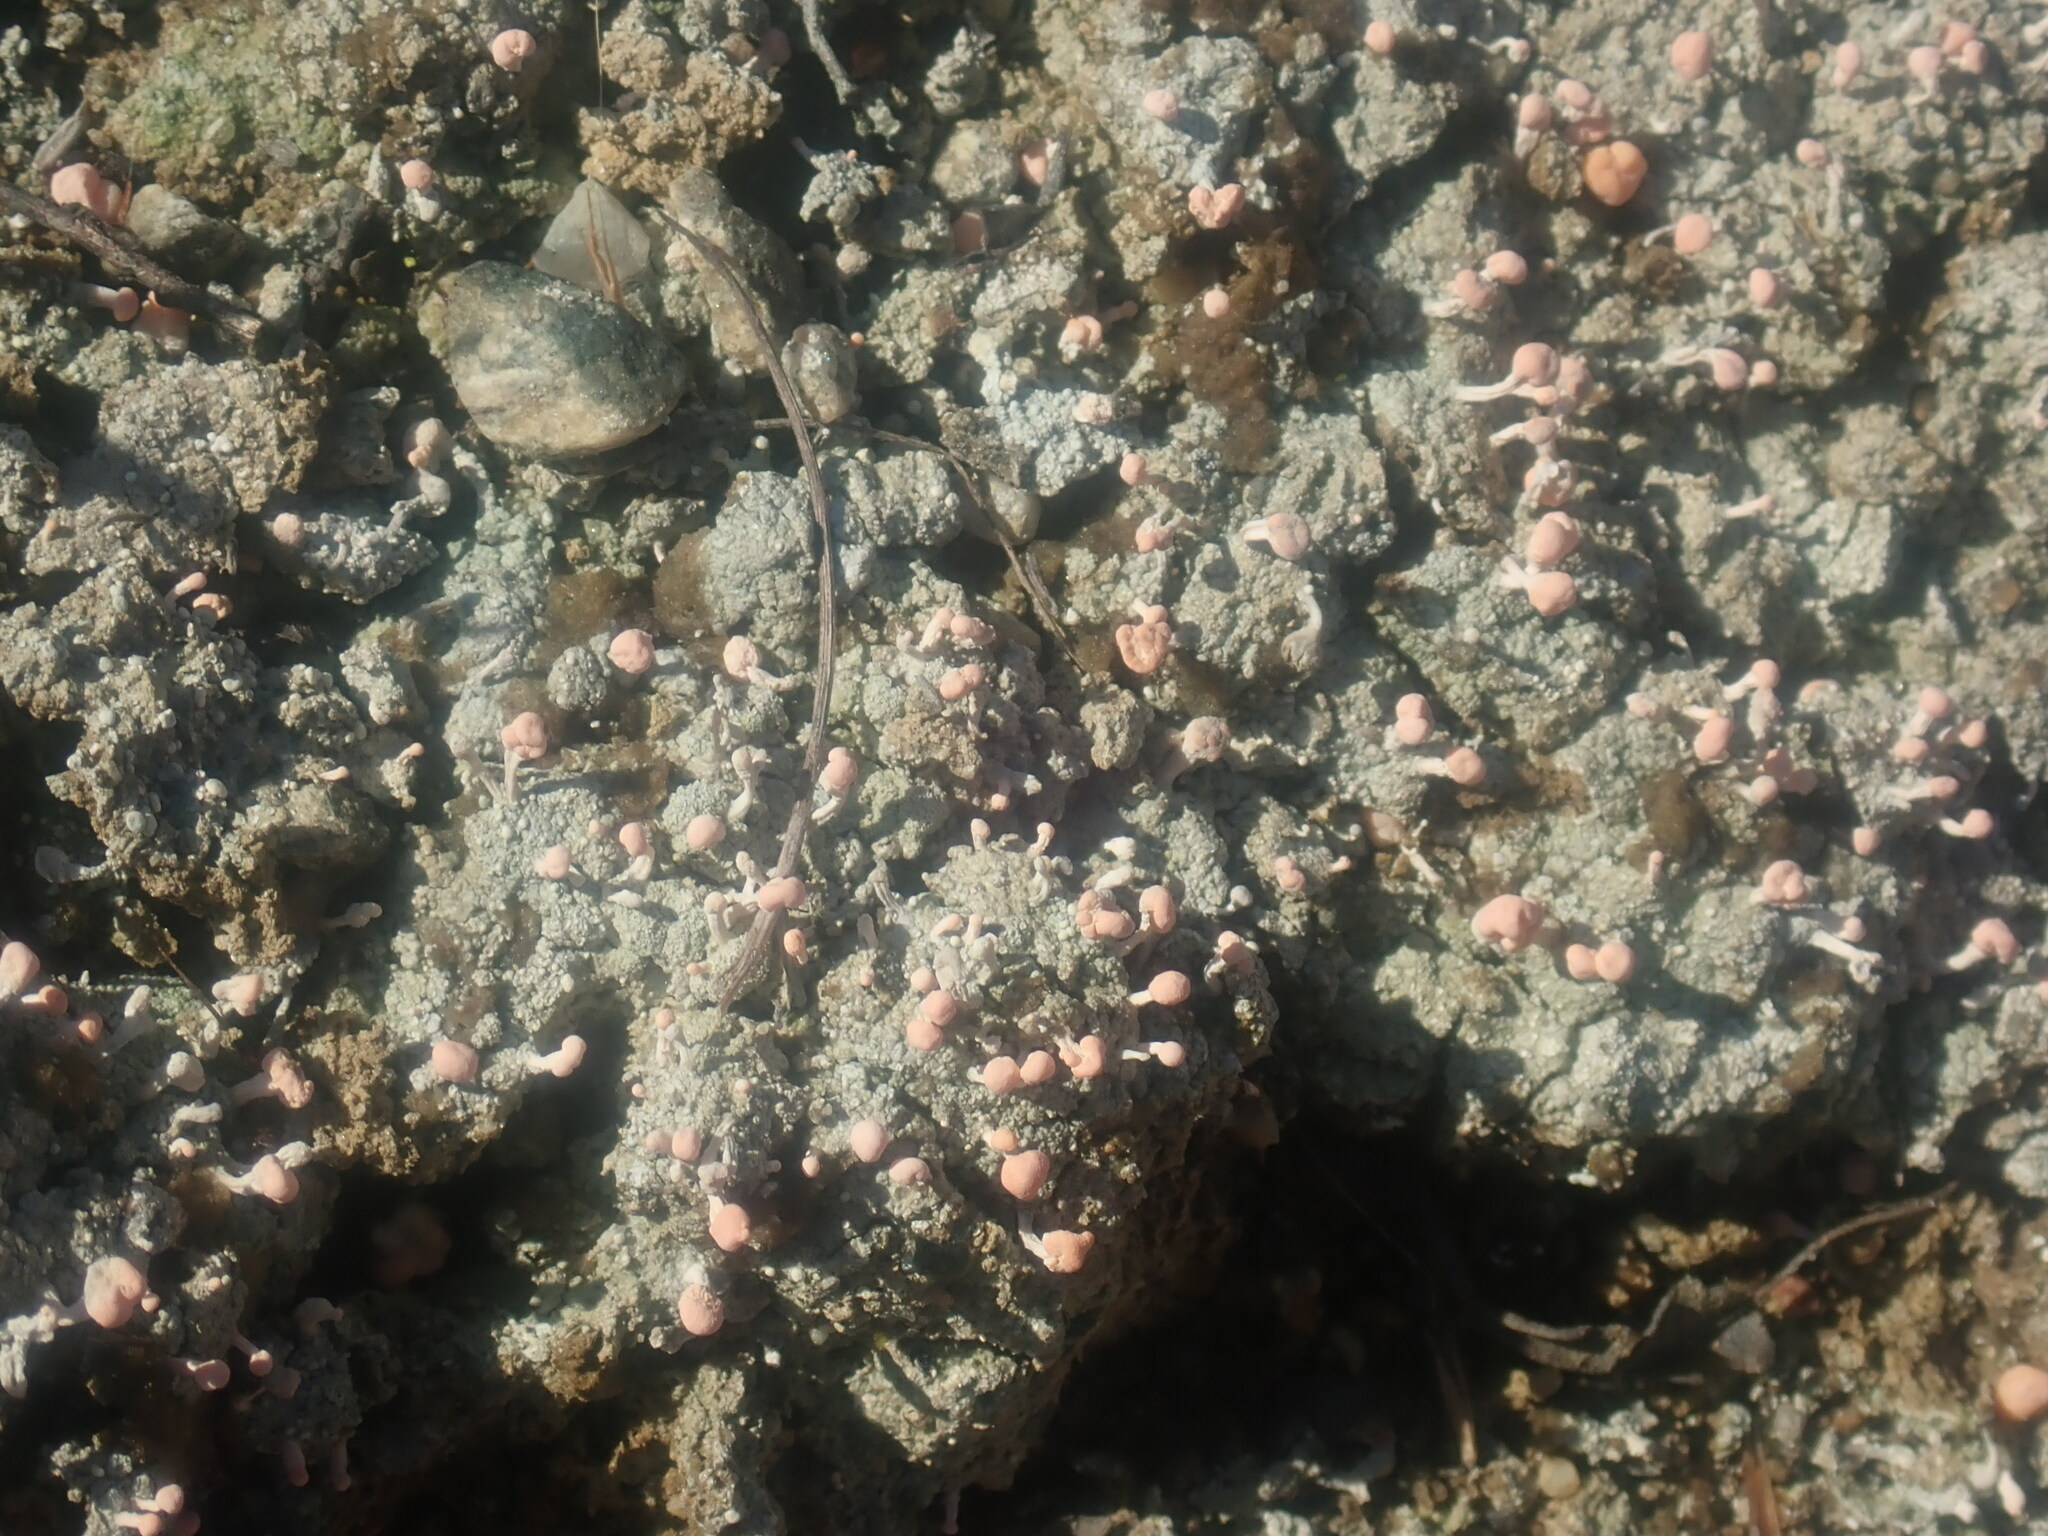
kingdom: Fungi
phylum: Ascomycota
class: Lecanoromycetes
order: Pertusariales
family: Icmadophilaceae
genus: Dibaeis
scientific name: Dibaeis baeomyces
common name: Pink earth lichen
